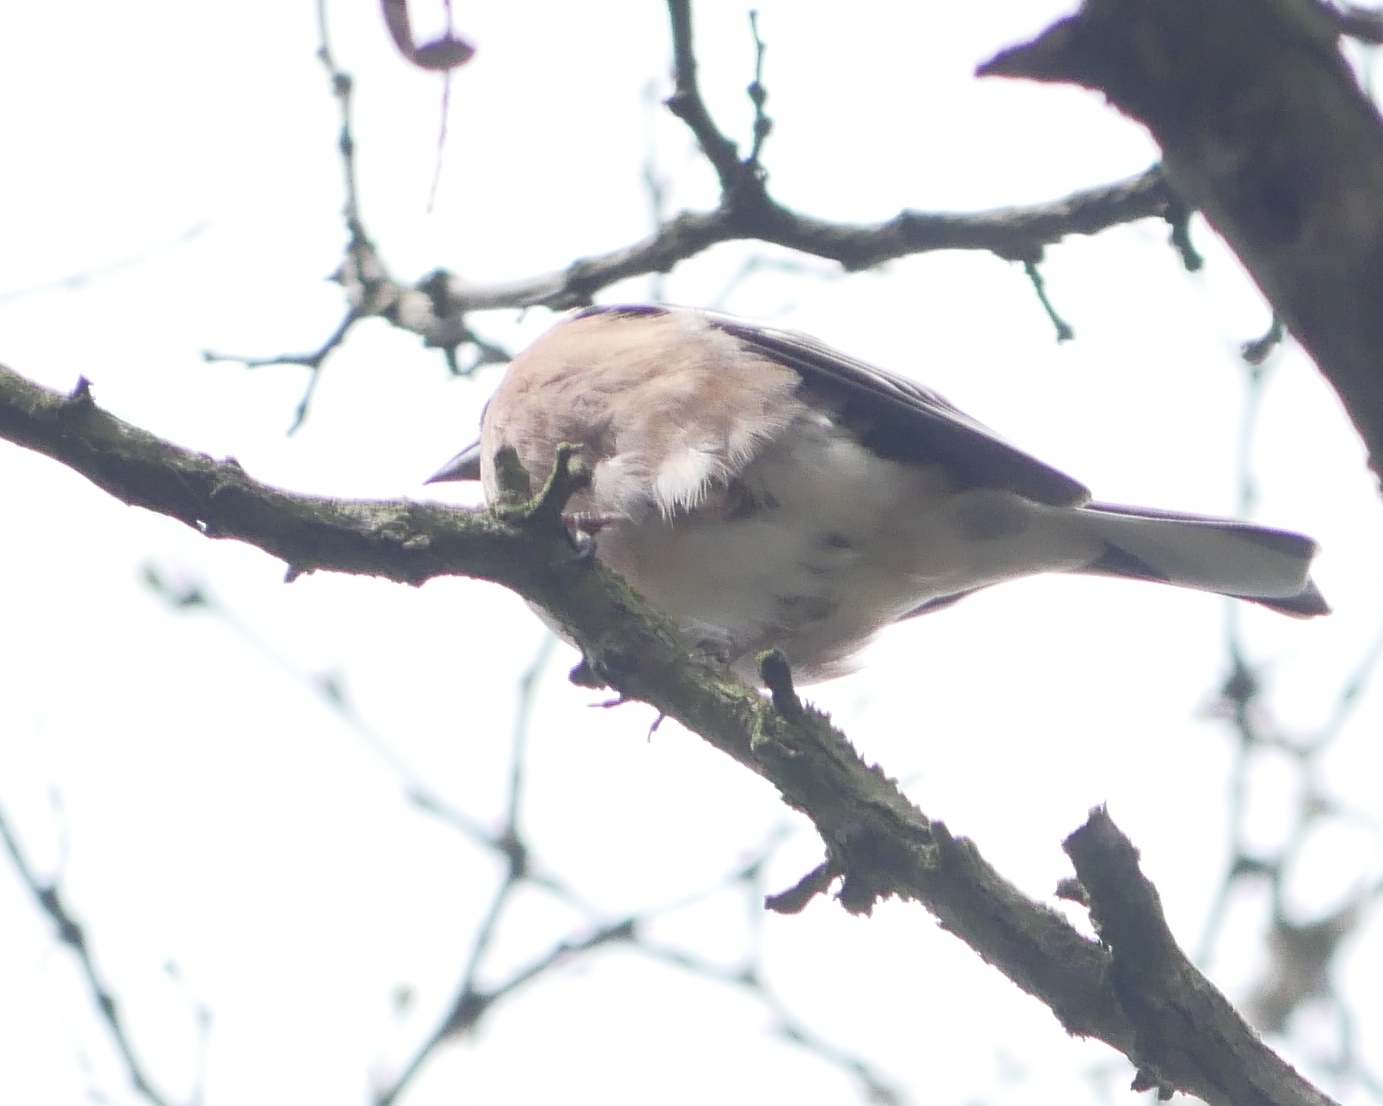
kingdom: Animalia
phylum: Chordata
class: Aves
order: Passeriformes
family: Fringillidae
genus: Fringilla
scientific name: Fringilla coelebs
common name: Common chaffinch
